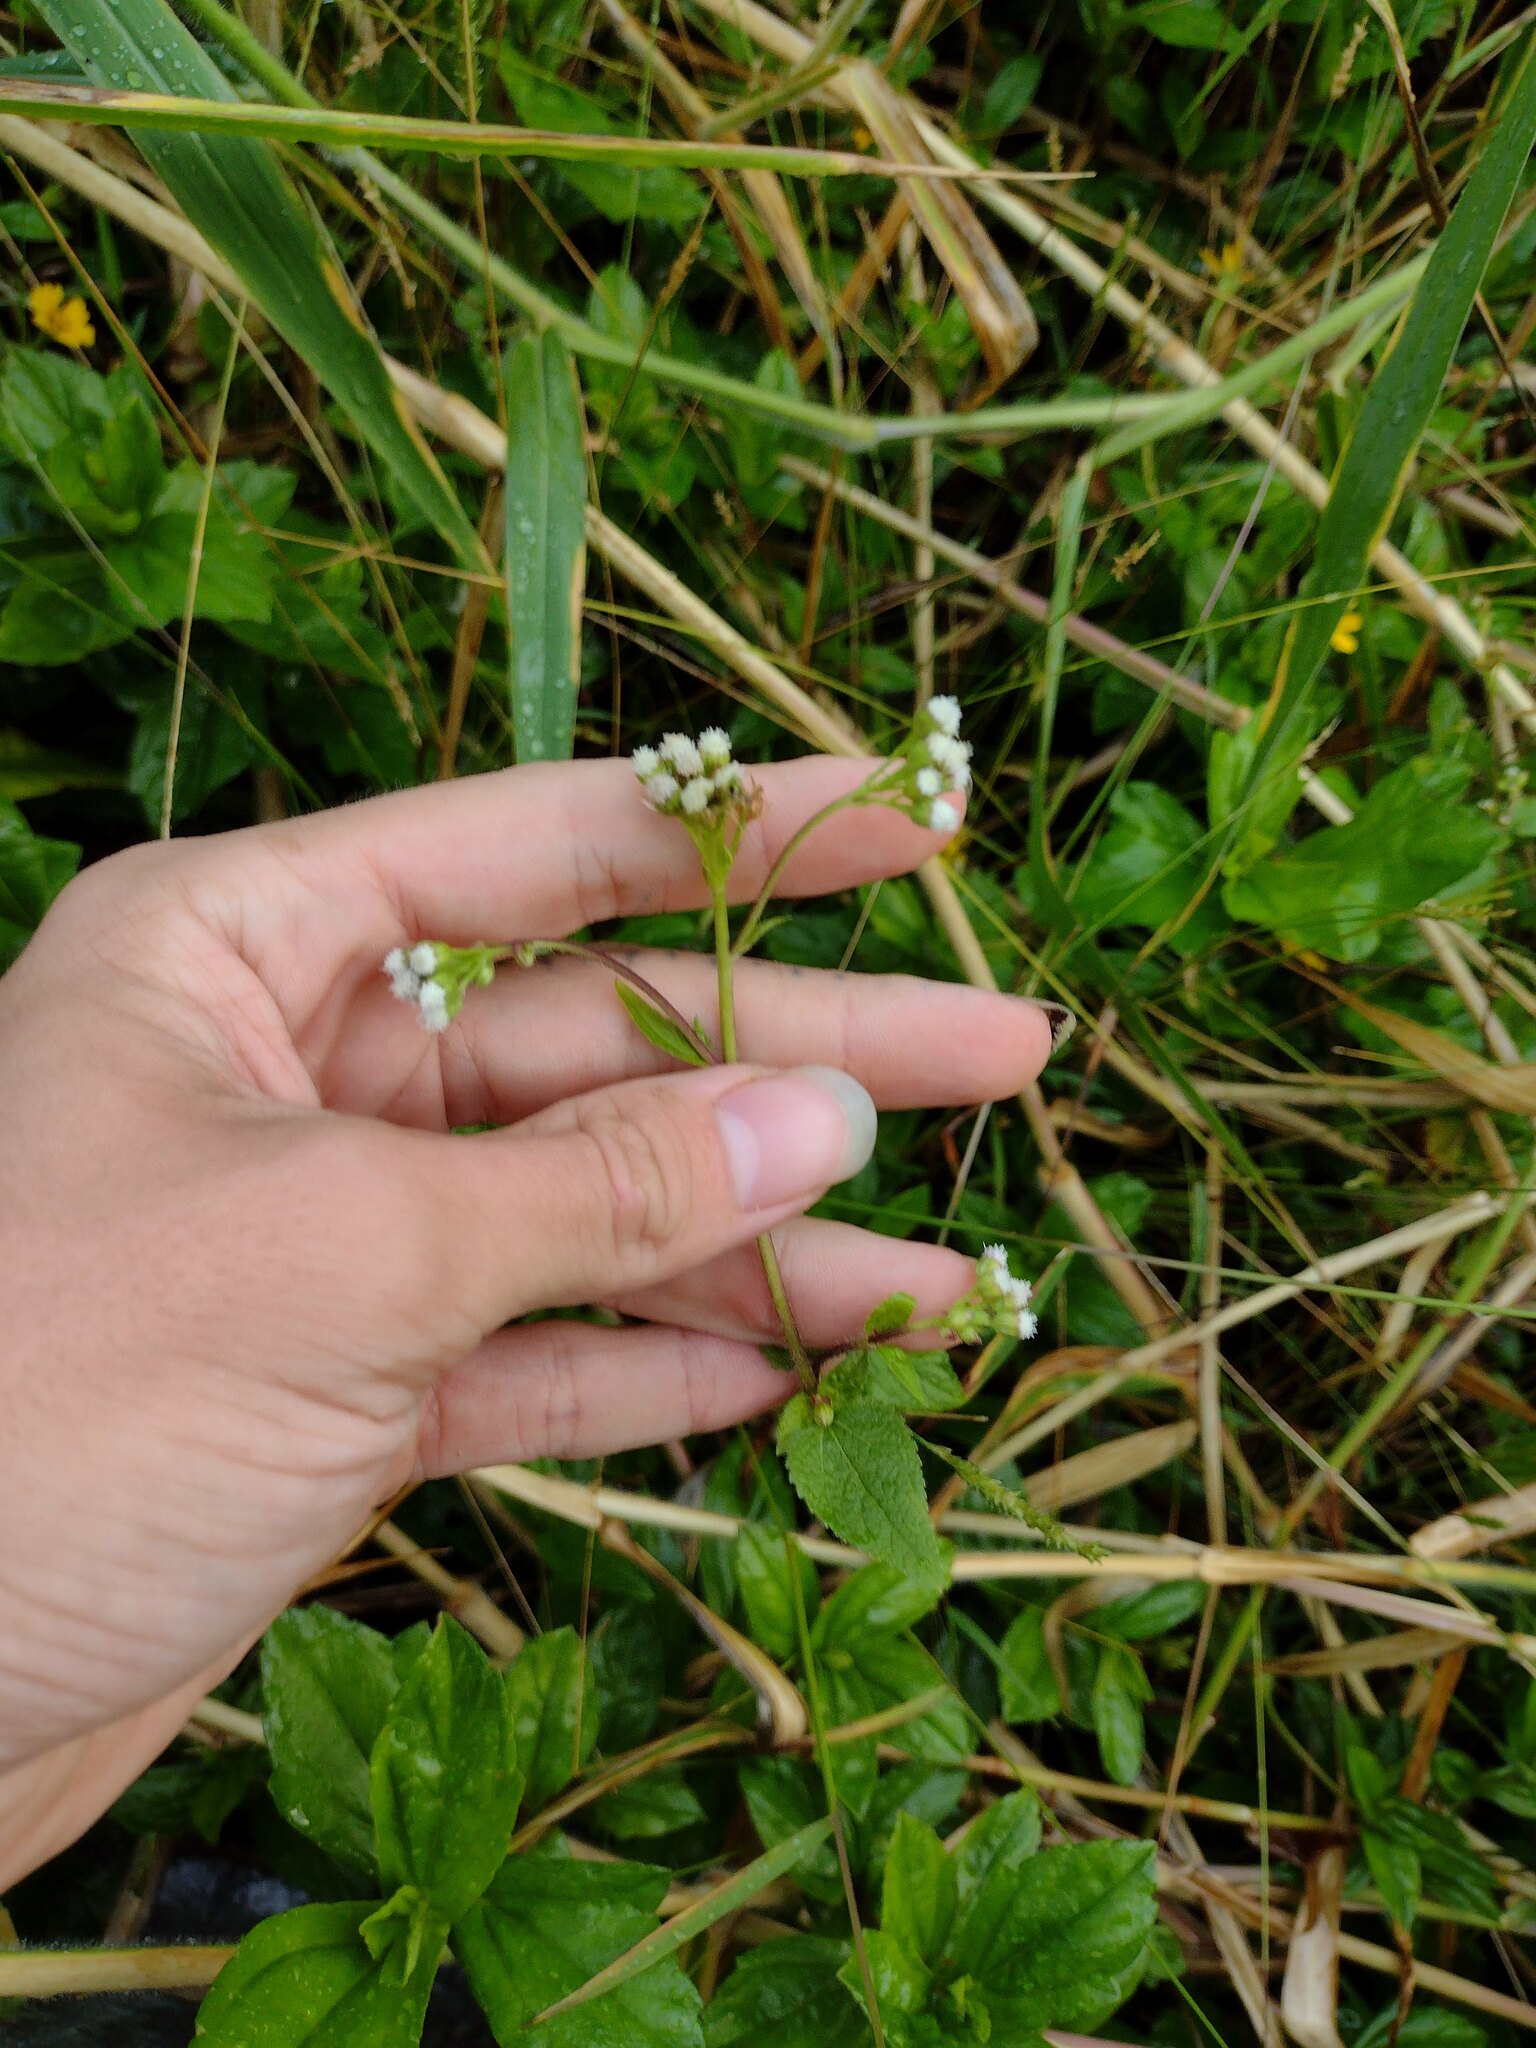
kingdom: Plantae
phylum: Tracheophyta
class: Magnoliopsida
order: Asterales
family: Asteraceae
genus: Ageratum
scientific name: Ageratum conyzoides
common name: Tropical whiteweed
